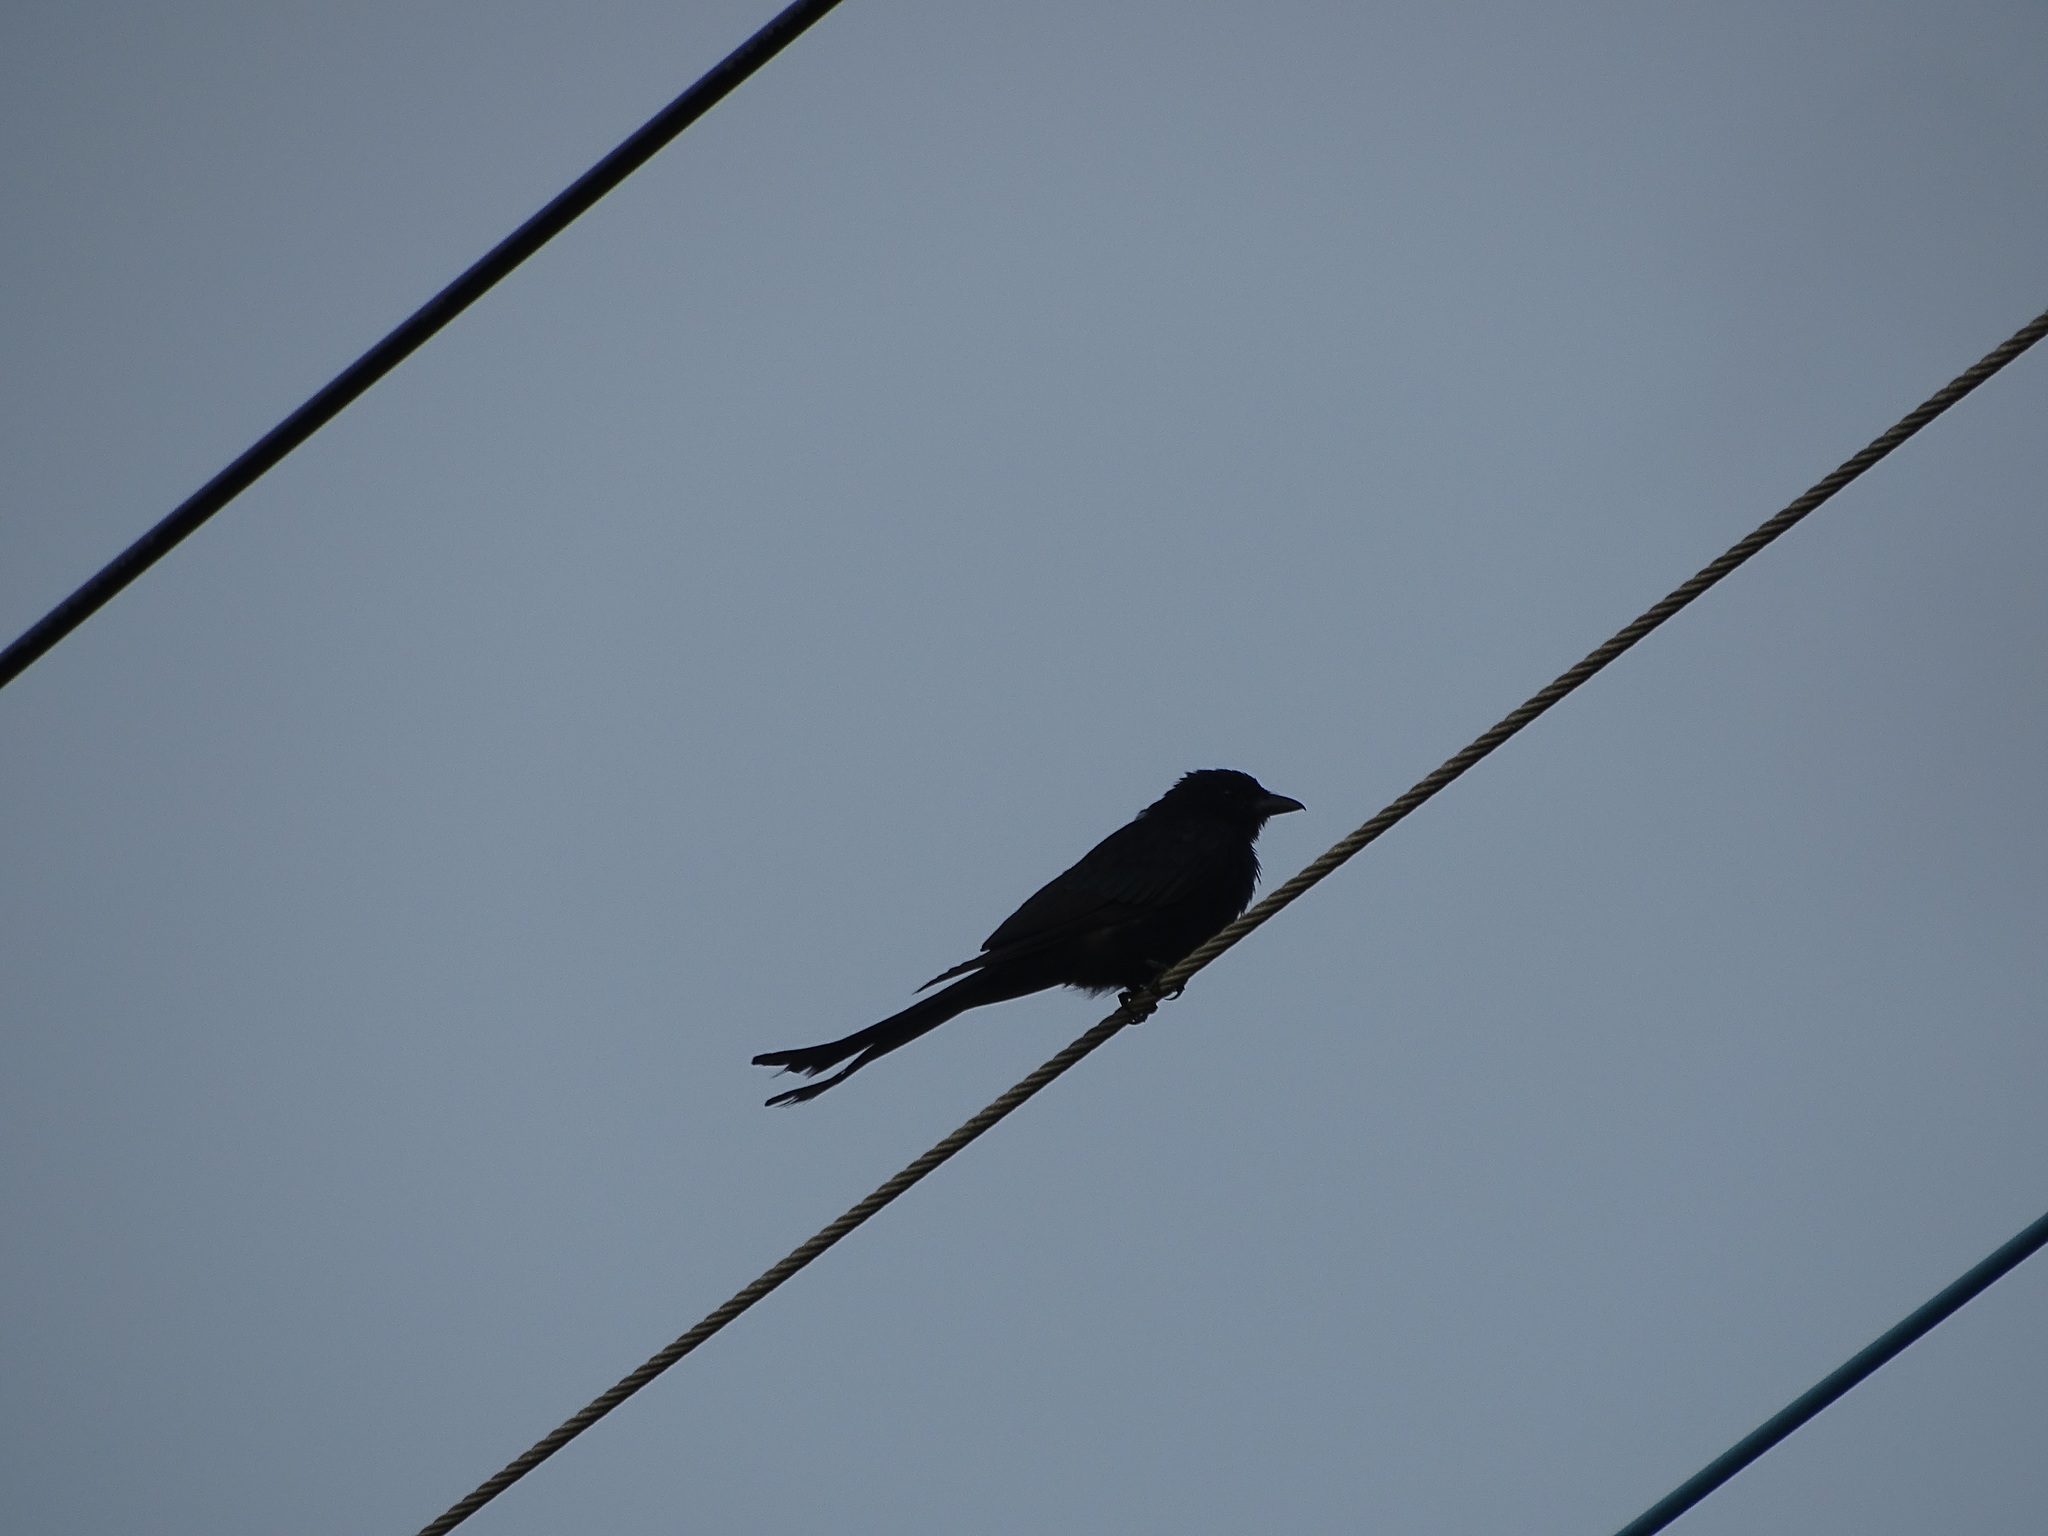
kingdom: Animalia
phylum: Chordata
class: Aves
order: Passeriformes
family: Dicruridae
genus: Dicrurus
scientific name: Dicrurus macrocercus
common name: Black drongo
